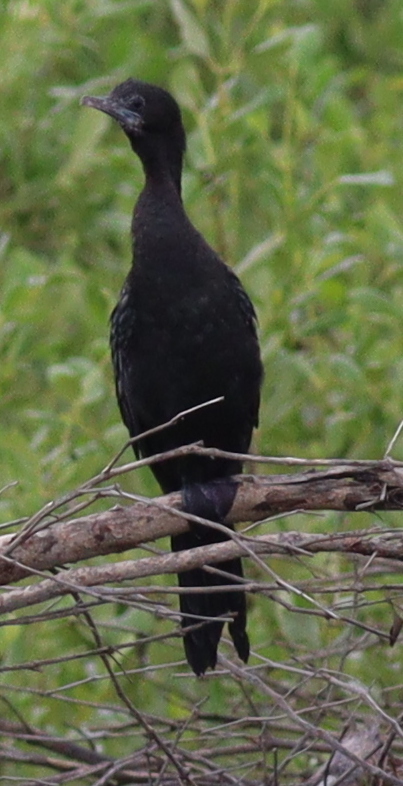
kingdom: Animalia
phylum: Chordata
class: Aves
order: Suliformes
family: Phalacrocoracidae
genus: Microcarbo
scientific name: Microcarbo niger
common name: Little cormorant
